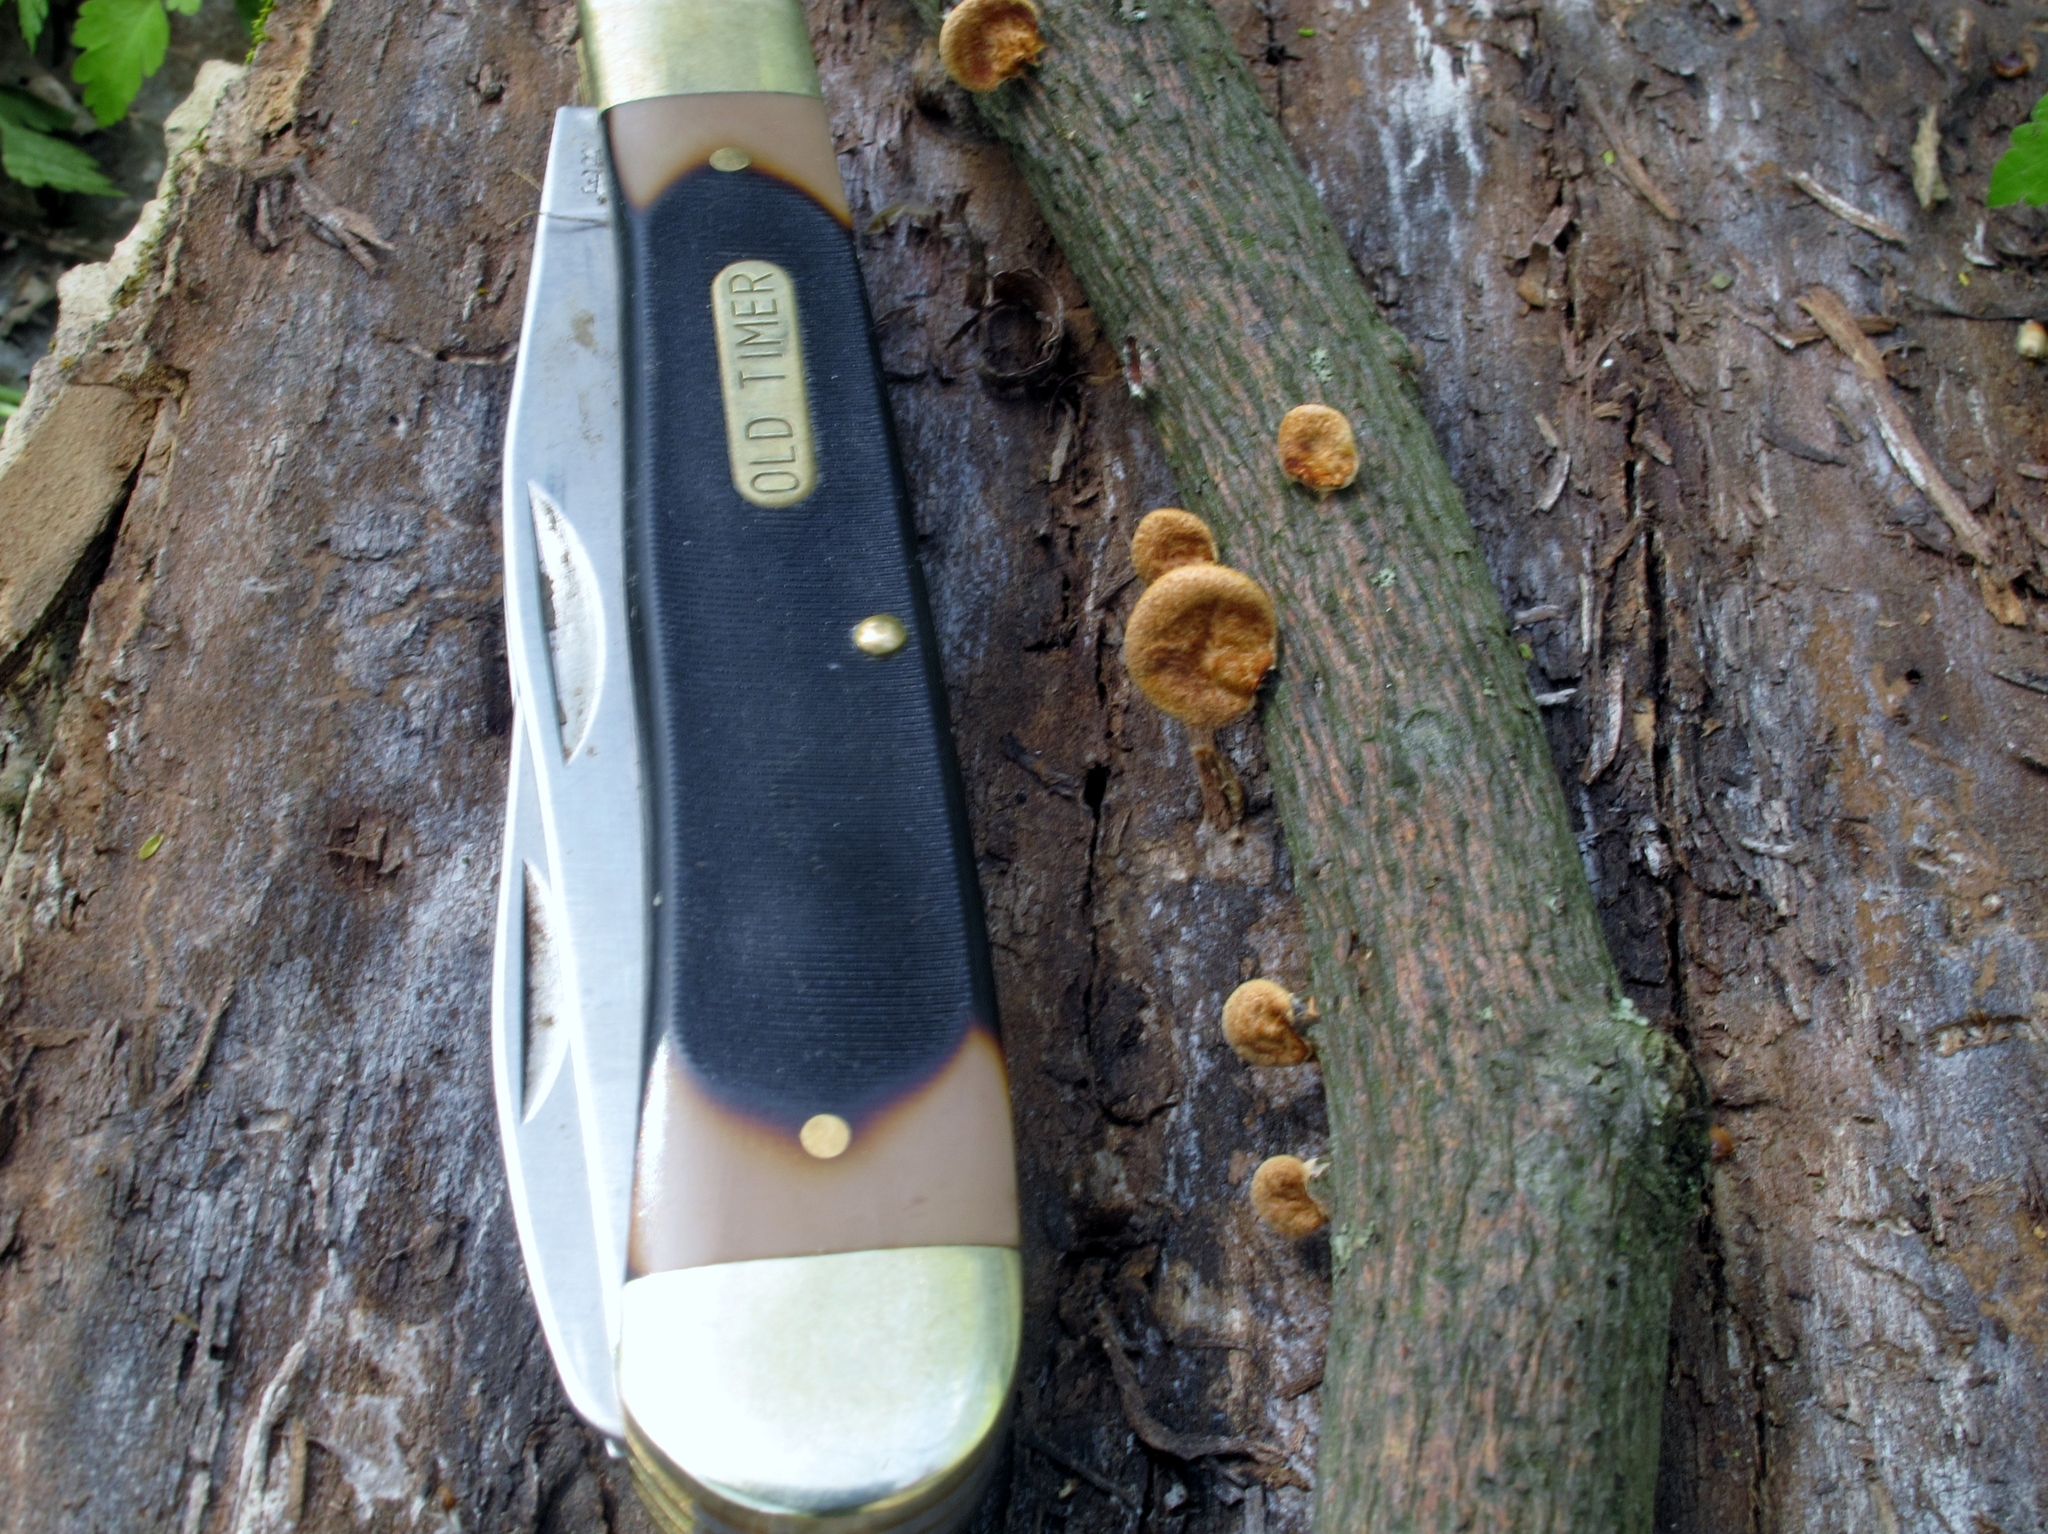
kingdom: Fungi
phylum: Basidiomycota
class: Agaricomycetes
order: Polyporales
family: Polyporaceae
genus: Neofavolus
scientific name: Neofavolus alveolaris
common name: Hexagonal-pored polypore
